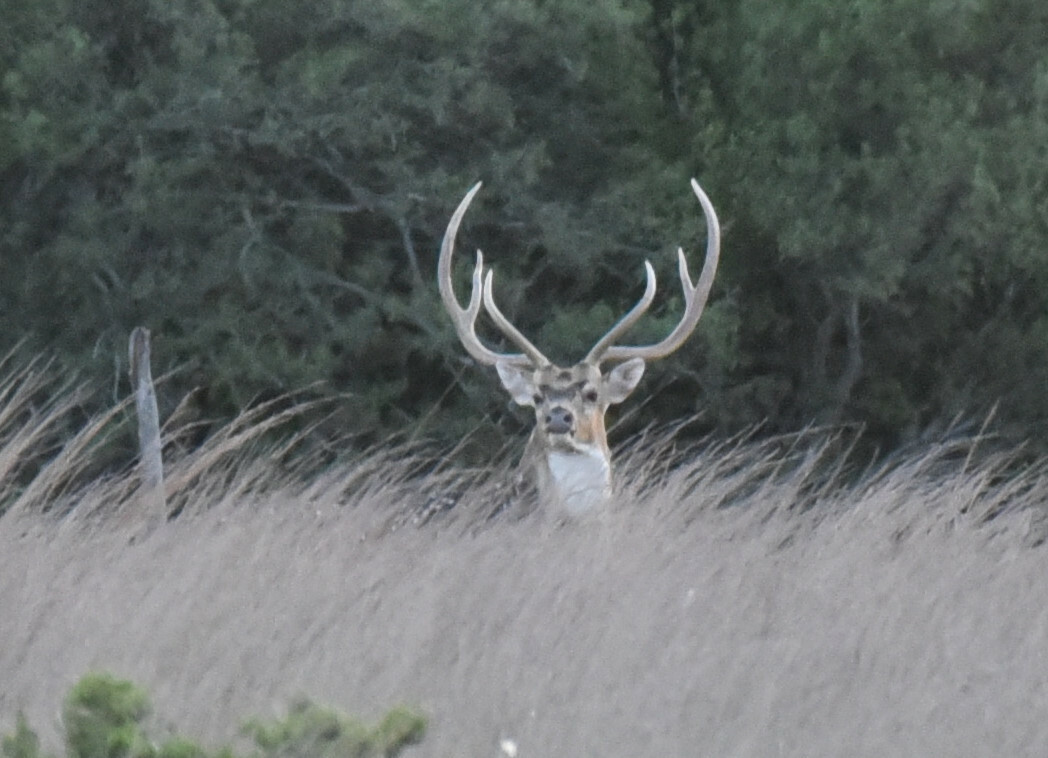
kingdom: Animalia
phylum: Chordata
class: Mammalia
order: Artiodactyla
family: Cervidae
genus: Axis
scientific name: Axis axis
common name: Chital
